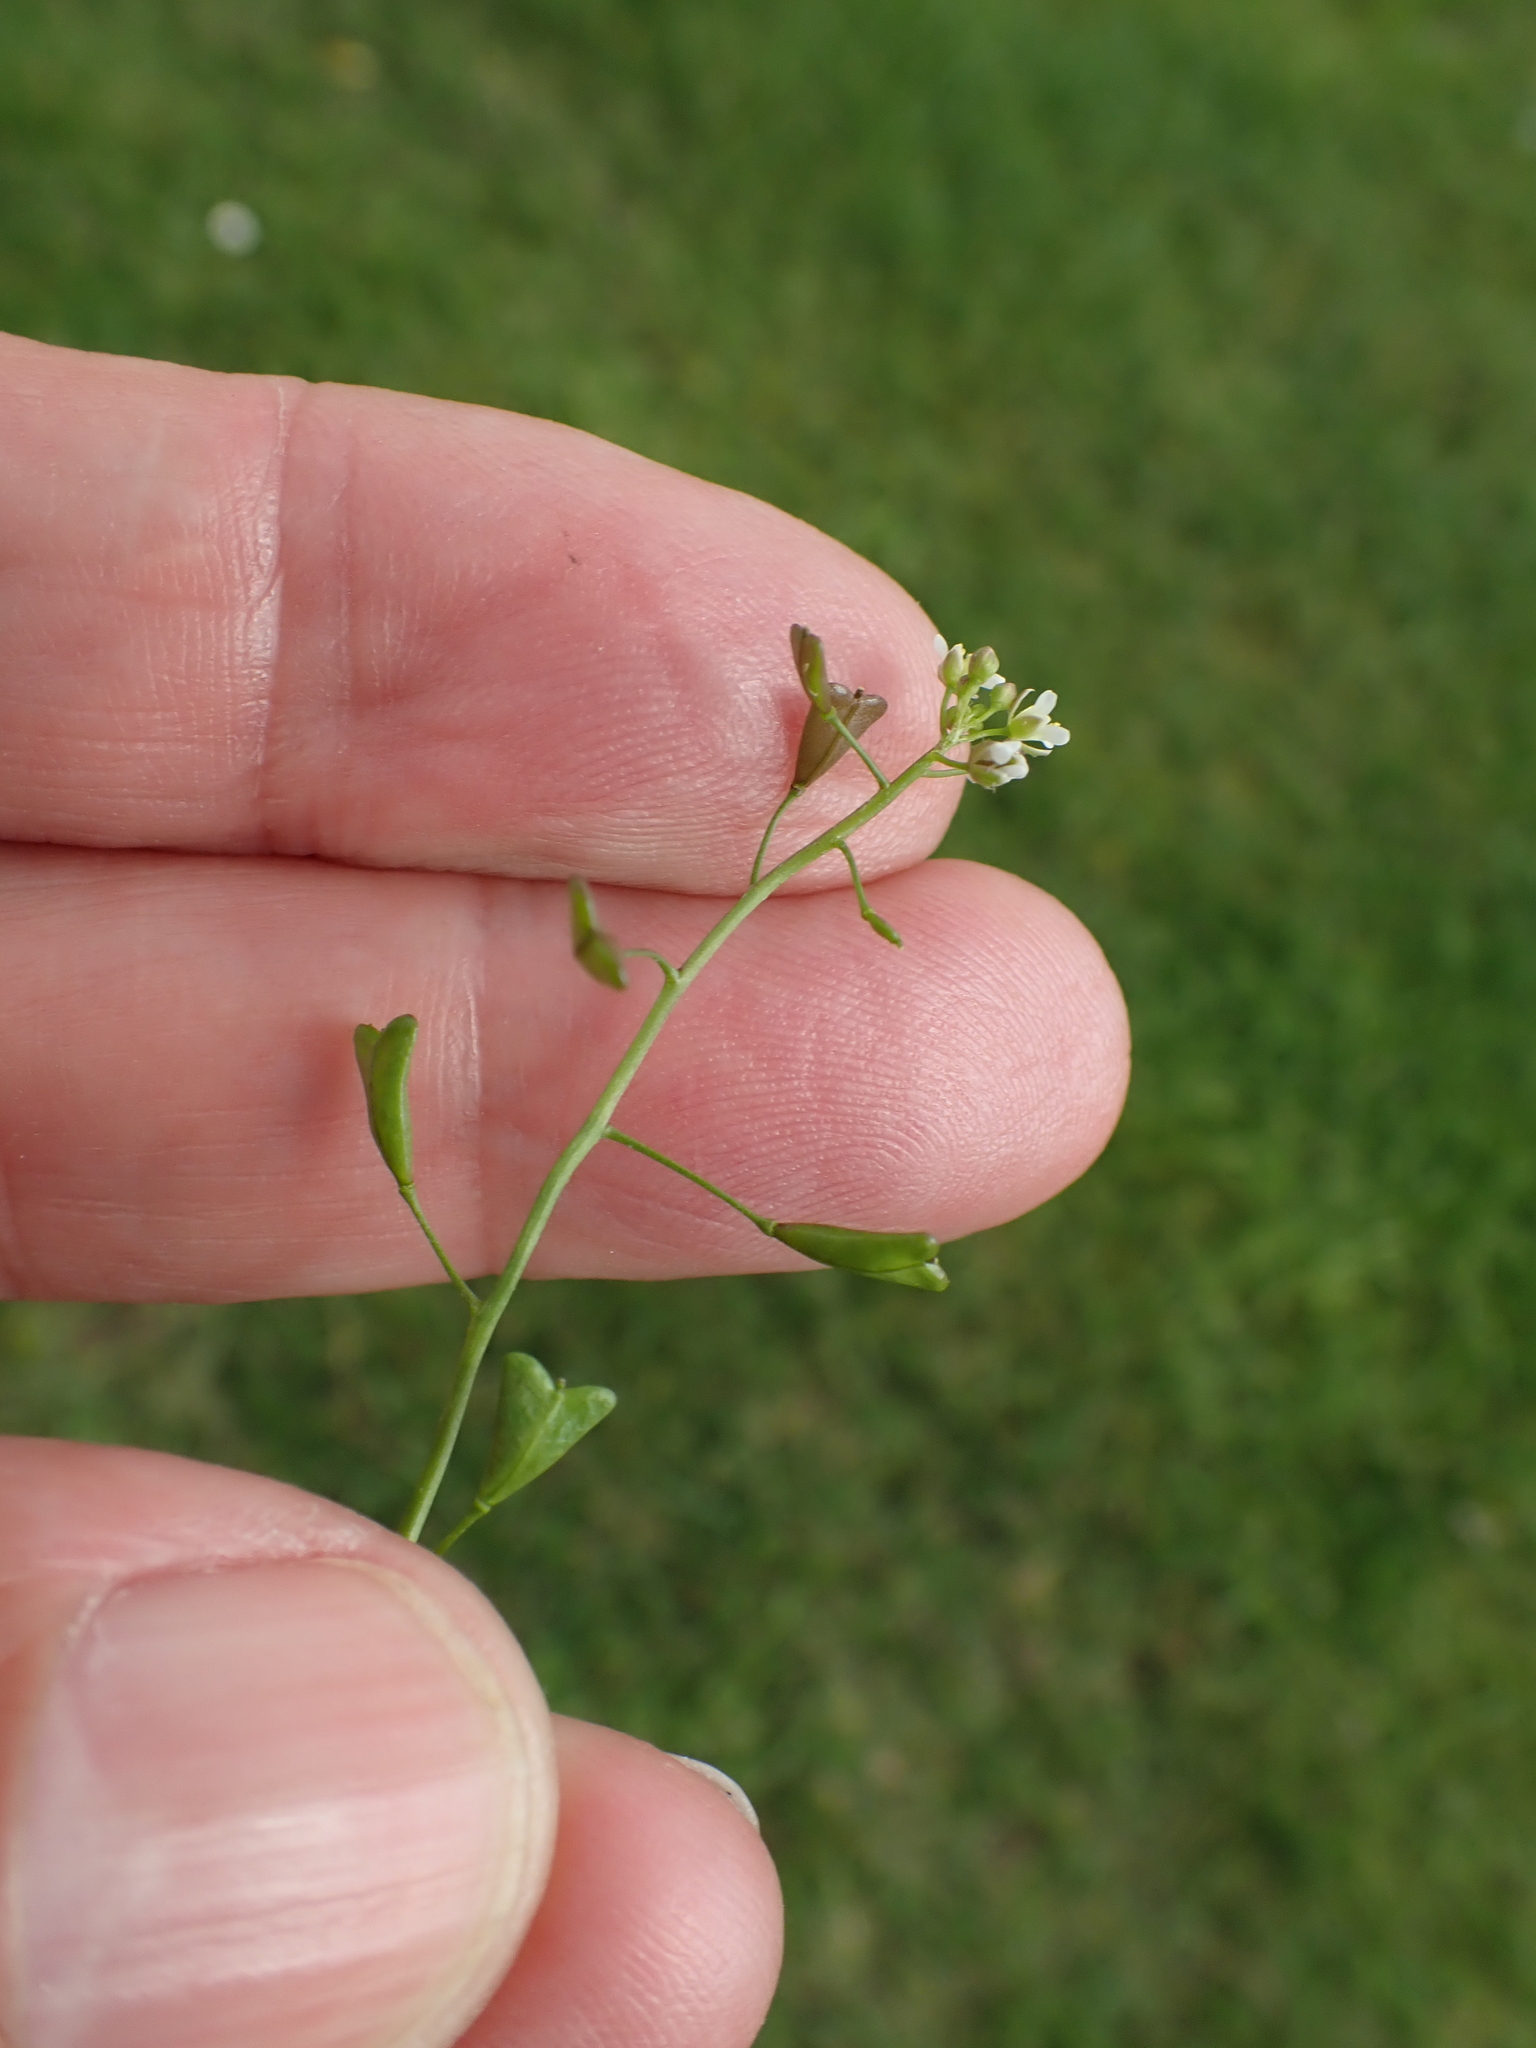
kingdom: Plantae
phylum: Tracheophyta
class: Magnoliopsida
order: Brassicales
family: Brassicaceae
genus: Capsella
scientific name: Capsella bursa-pastoris
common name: Shepherd's purse
